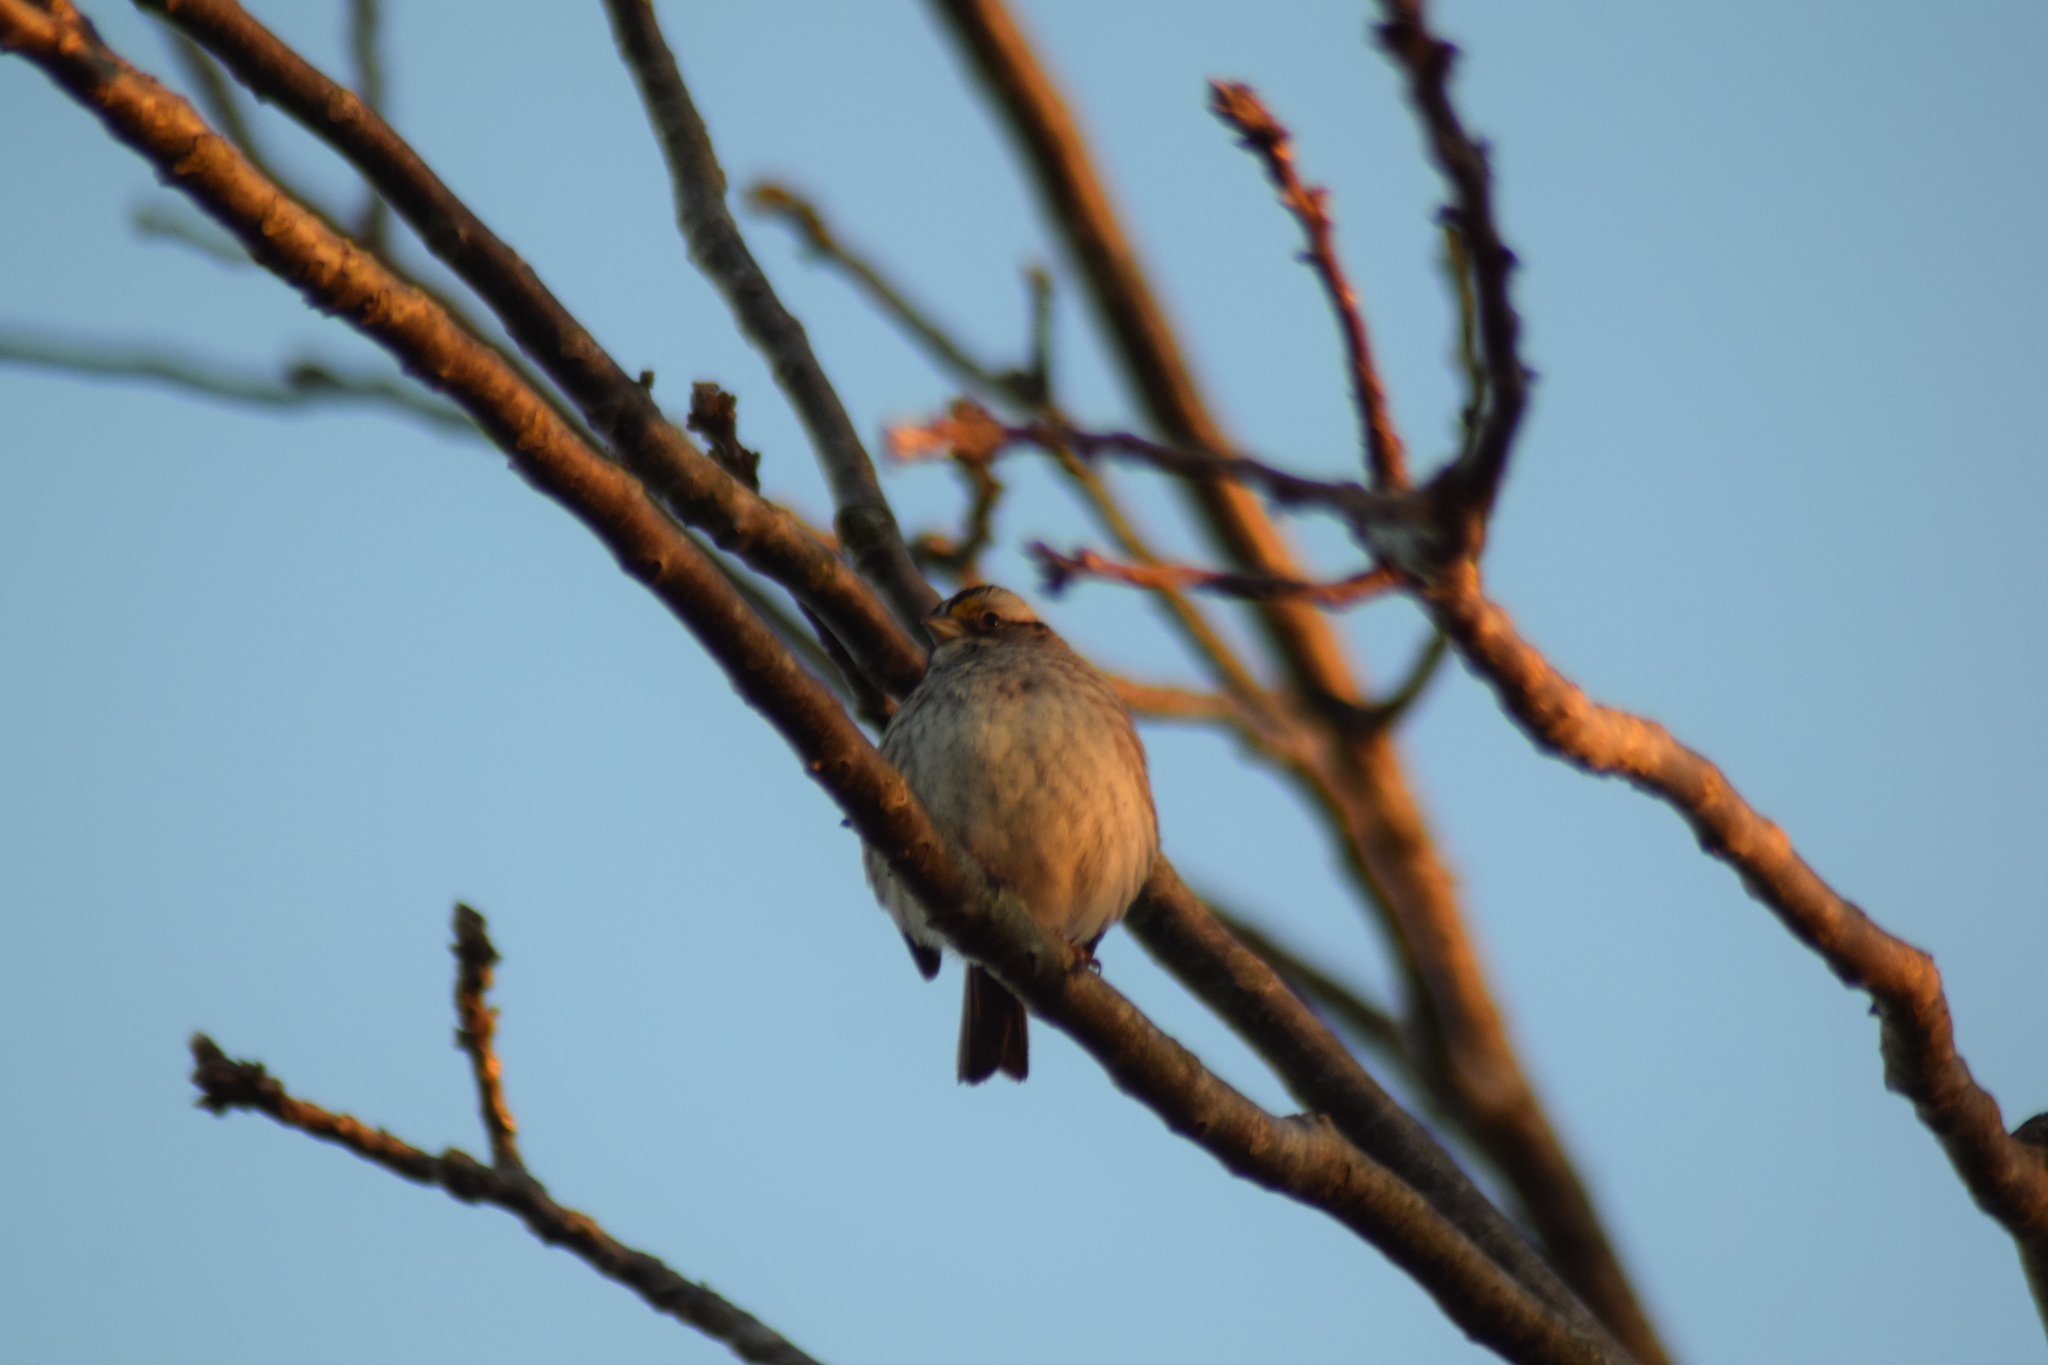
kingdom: Animalia
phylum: Chordata
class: Aves
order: Passeriformes
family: Passerellidae
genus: Zonotrichia
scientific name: Zonotrichia albicollis
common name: White-throated sparrow
